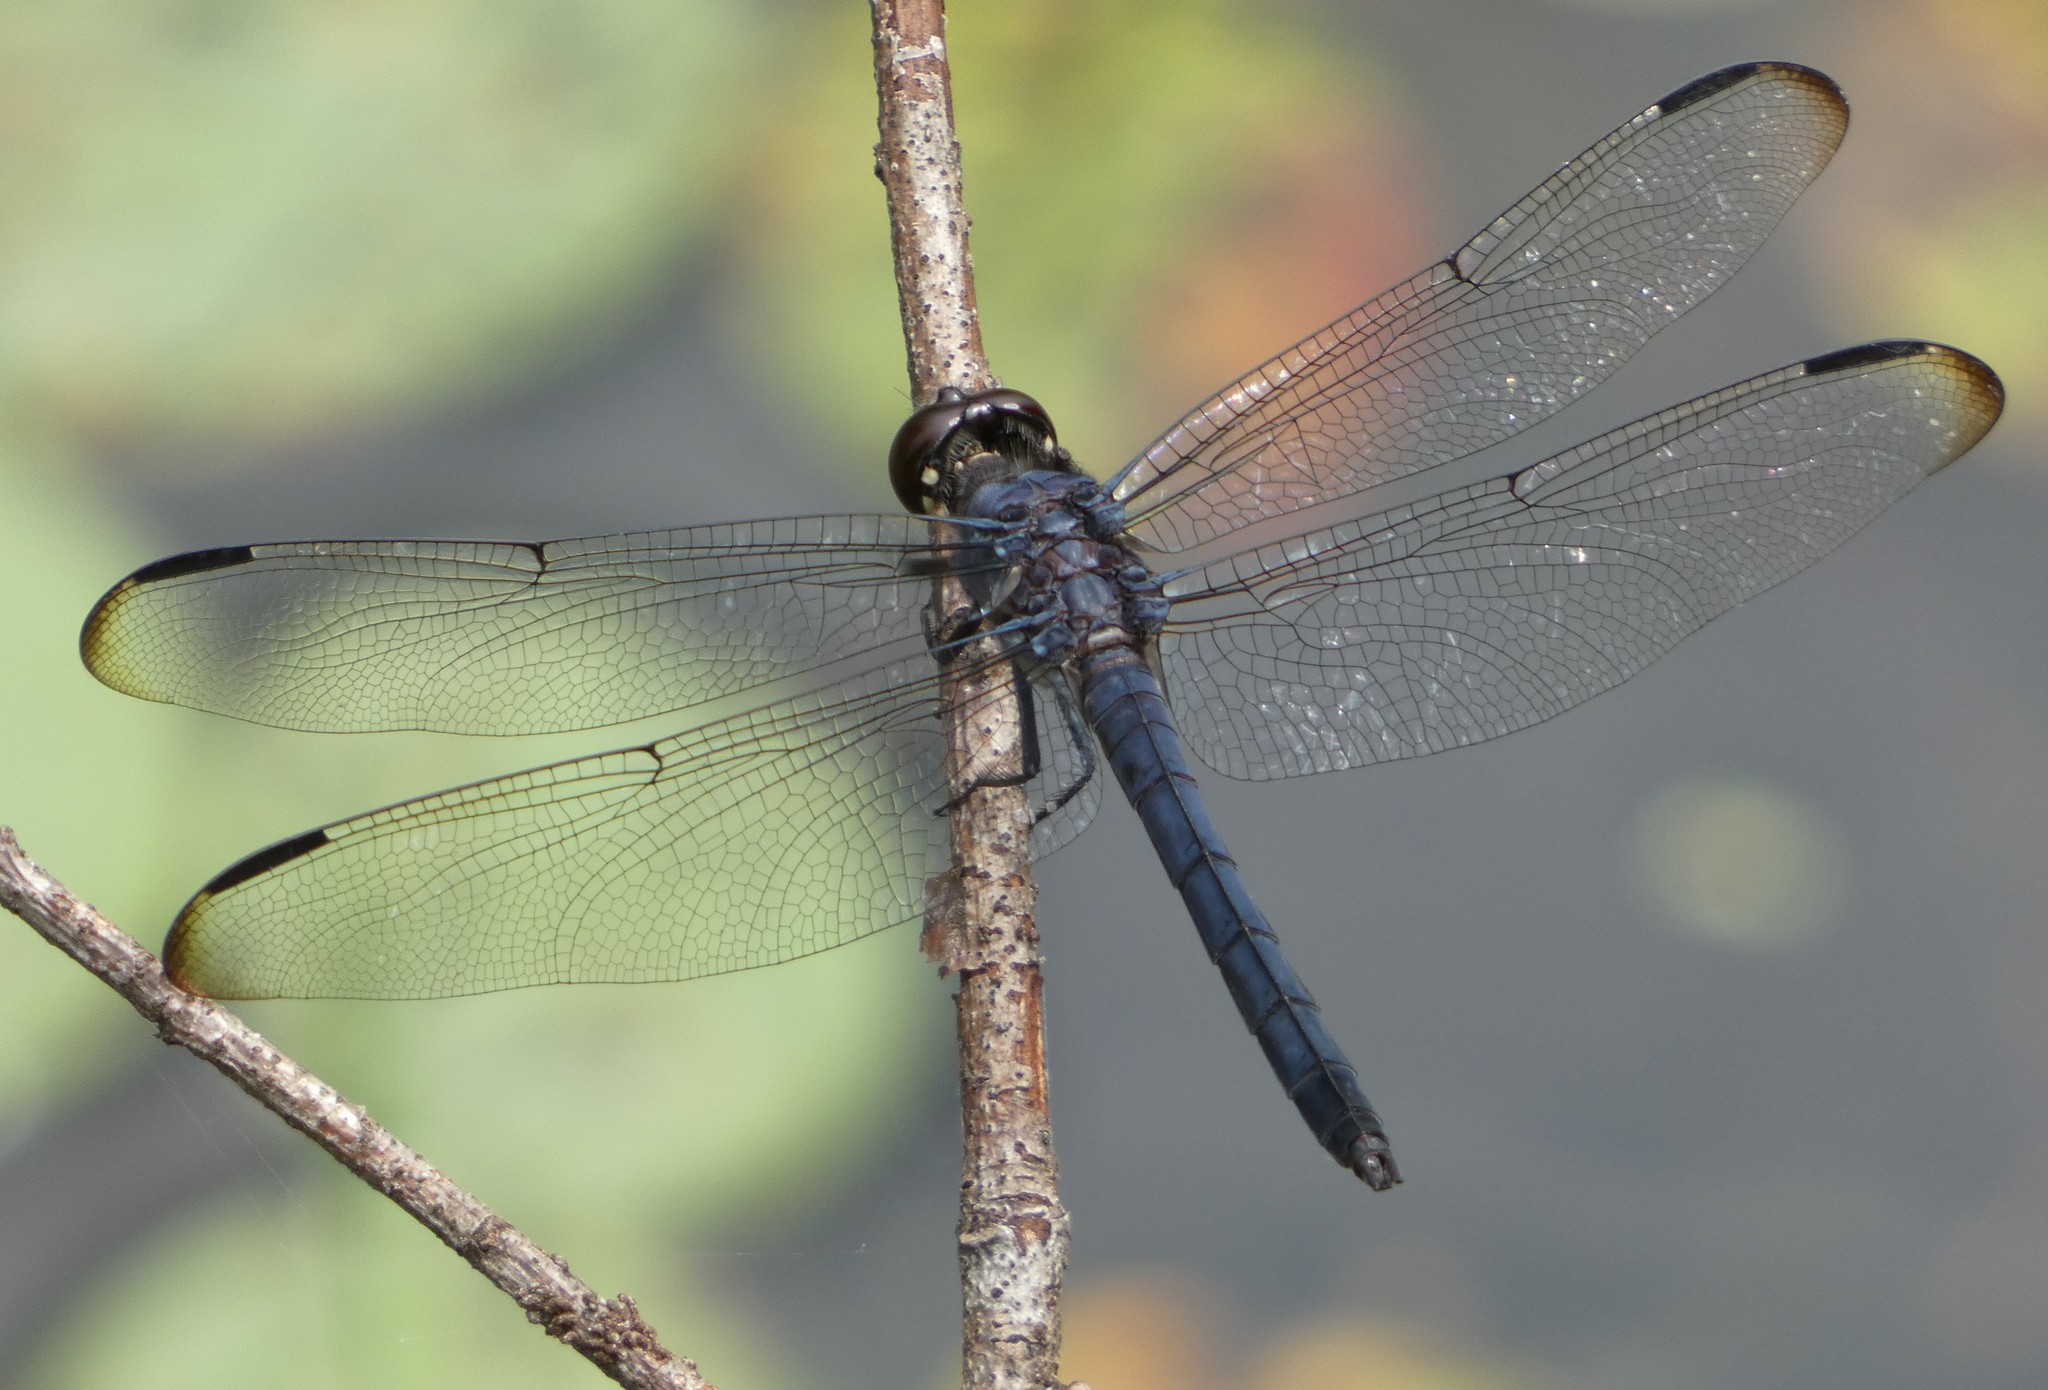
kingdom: Animalia
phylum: Arthropoda
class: Insecta
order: Odonata
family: Libellulidae
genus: Libellula
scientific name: Libellula incesta
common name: Slaty skimmer
